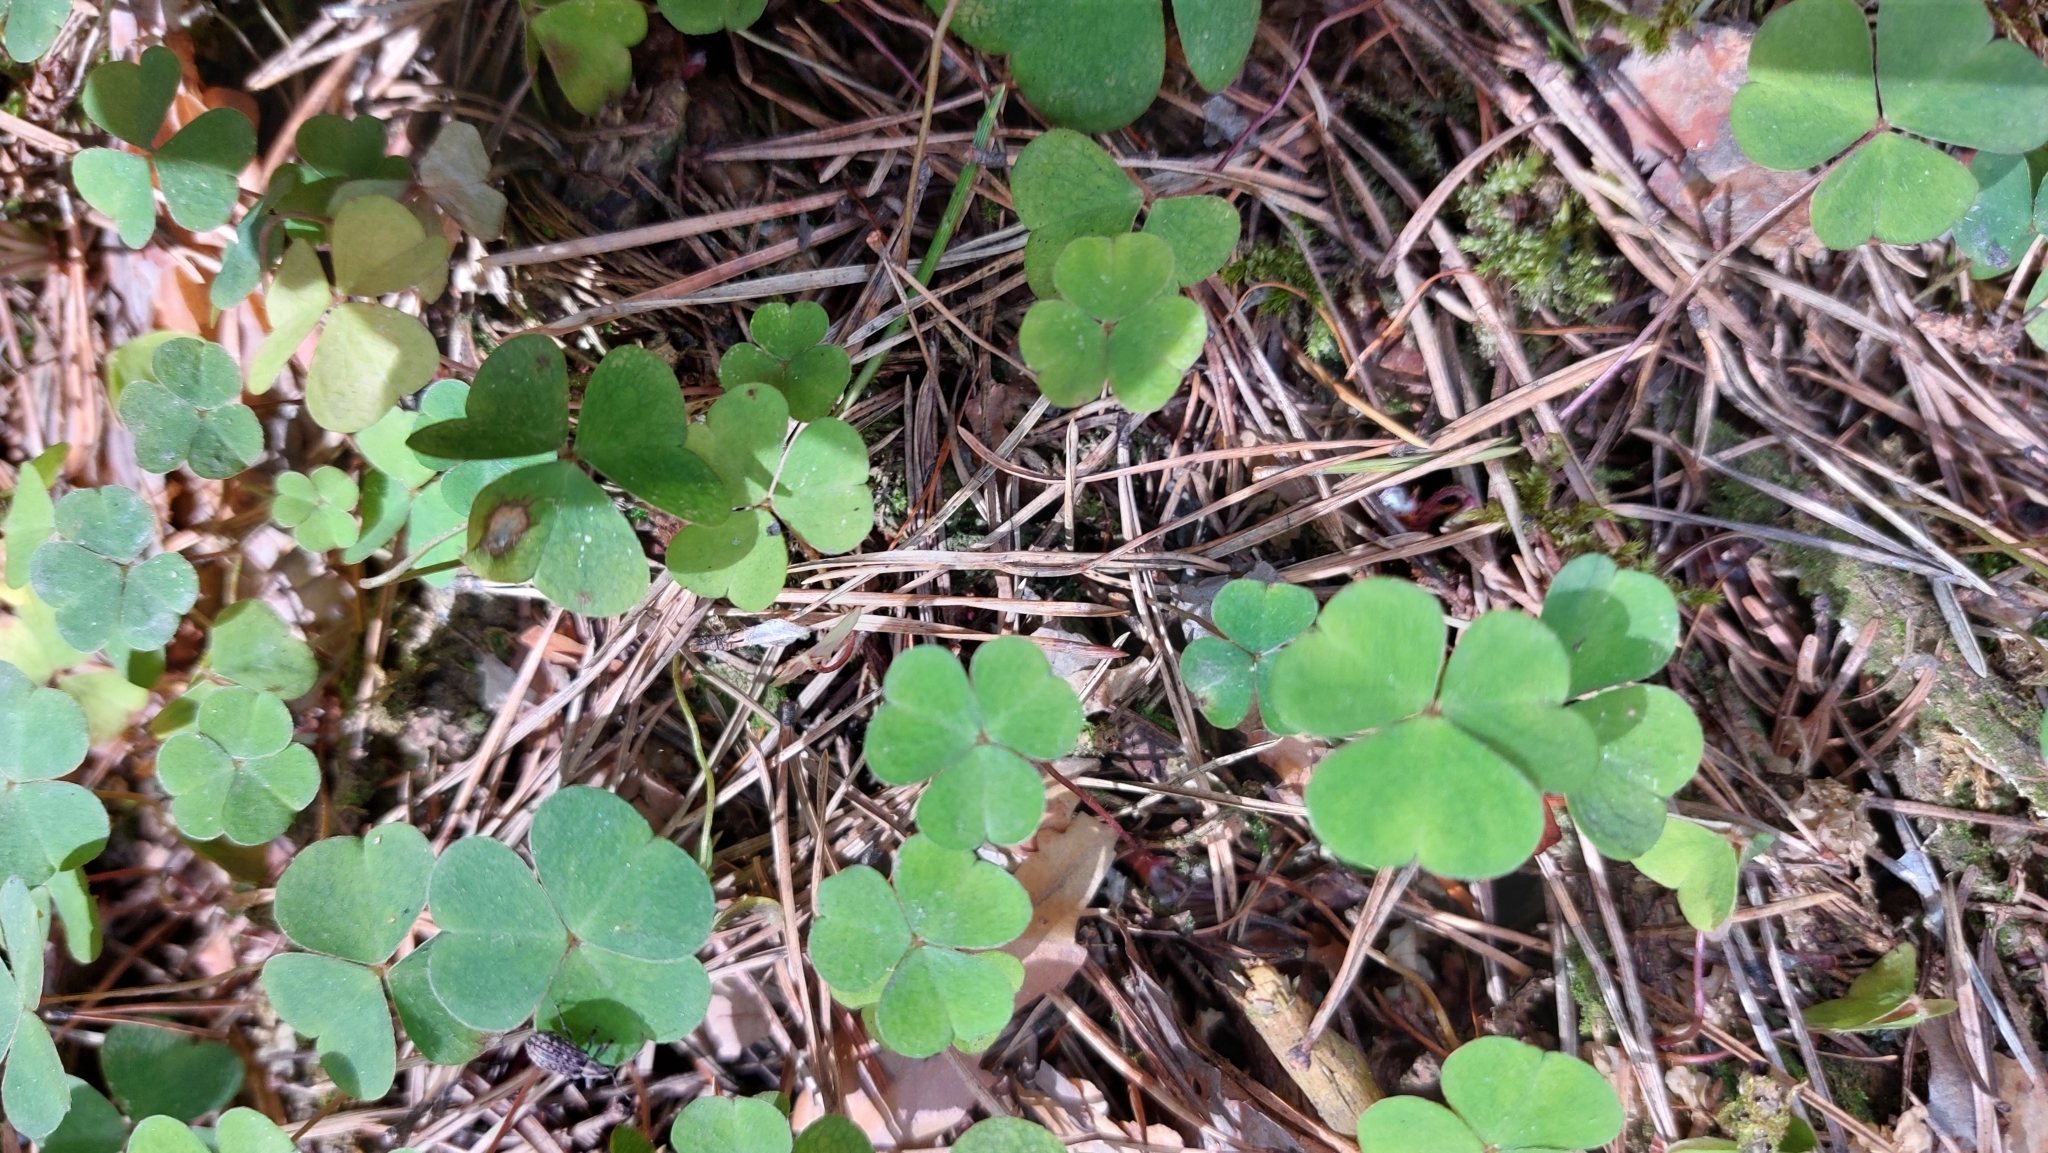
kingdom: Plantae
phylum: Tracheophyta
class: Magnoliopsida
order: Oxalidales
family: Oxalidaceae
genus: Oxalis
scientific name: Oxalis acetosella
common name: Wood-sorrel
